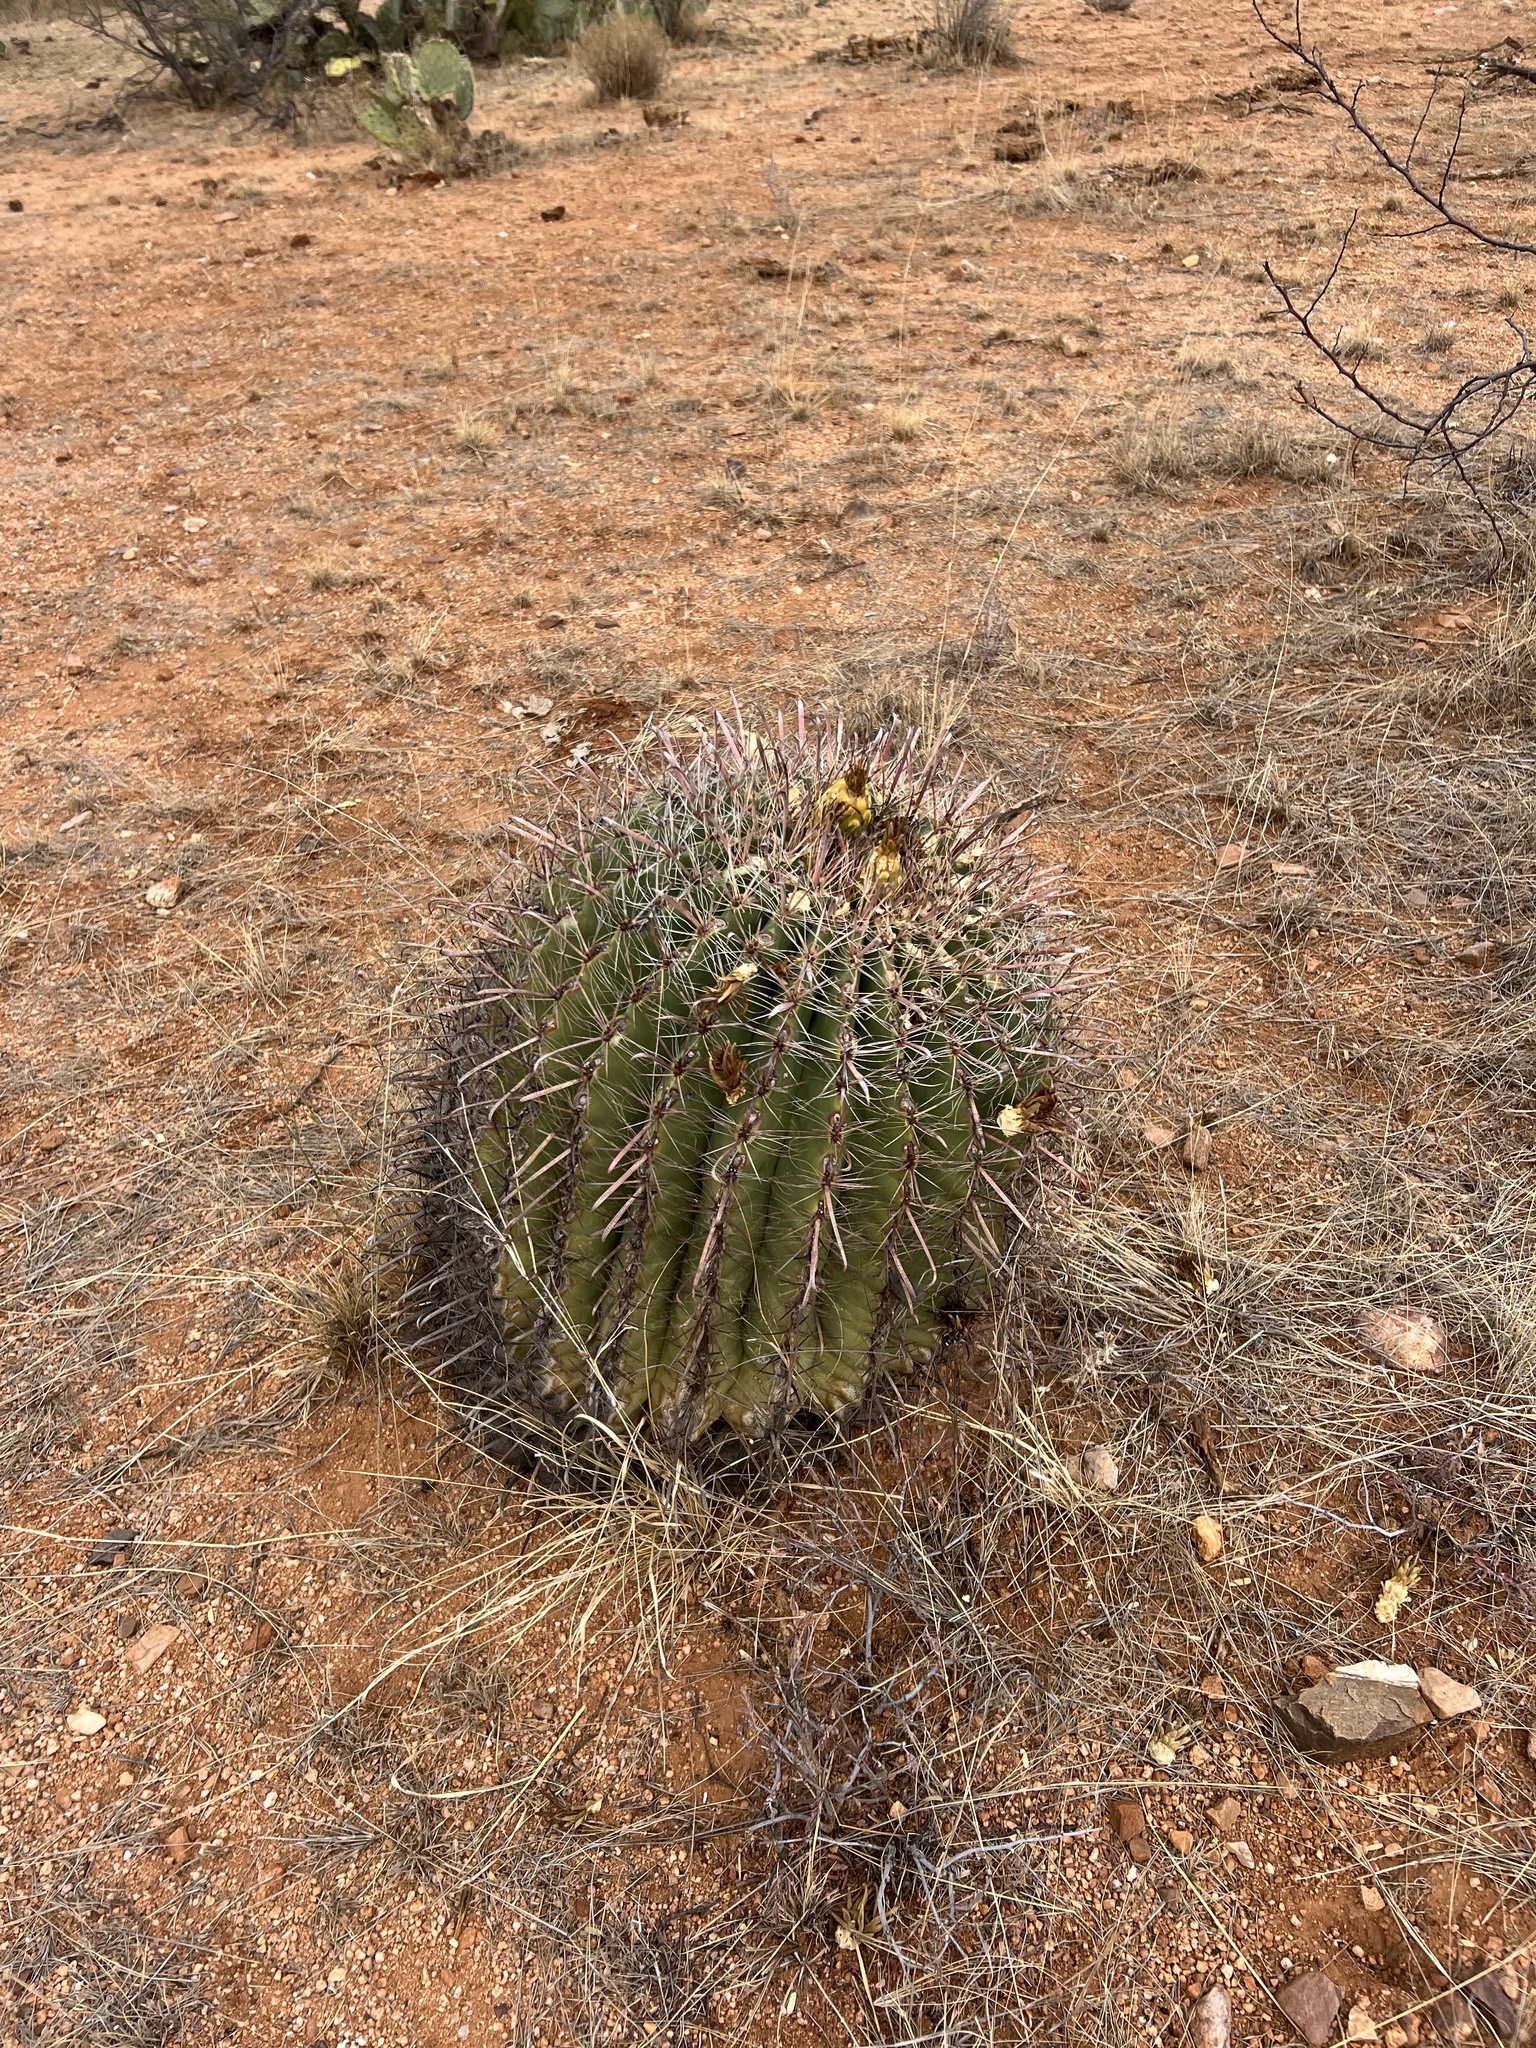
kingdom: Plantae
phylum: Tracheophyta
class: Magnoliopsida
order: Caryophyllales
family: Cactaceae
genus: Ferocactus
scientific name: Ferocactus wislizeni
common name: Candy barrel cactus
